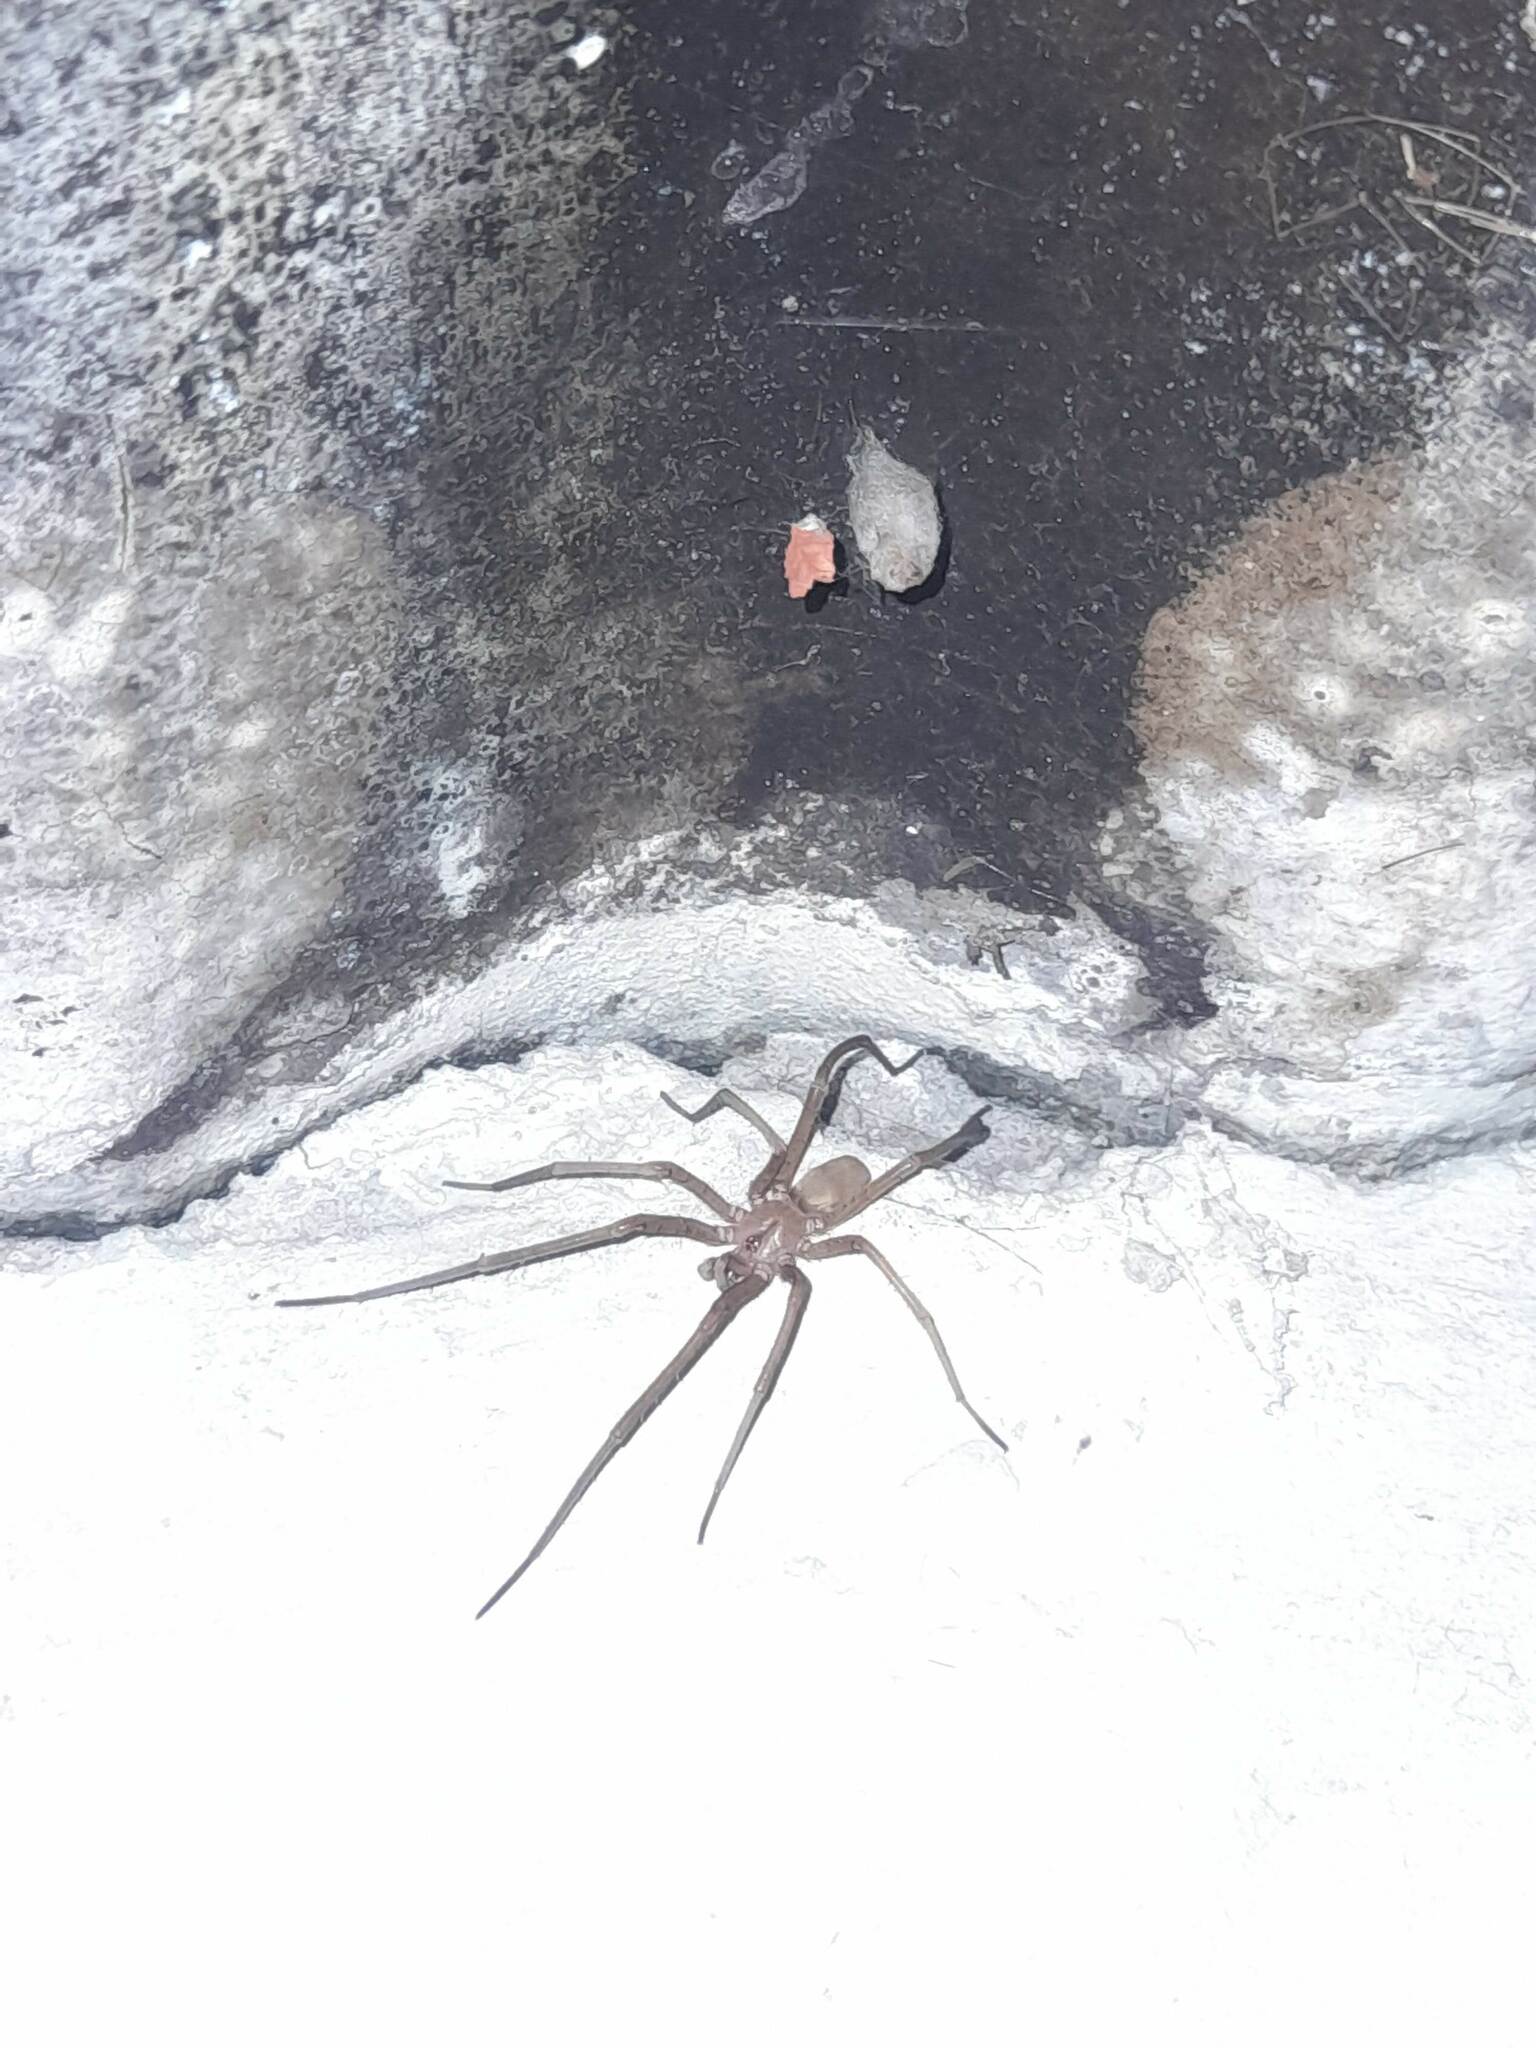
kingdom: Animalia
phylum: Arthropoda
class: Arachnida
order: Araneae
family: Filistatidae
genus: Kukulcania
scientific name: Kukulcania hibernalis
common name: Crevice weaver
